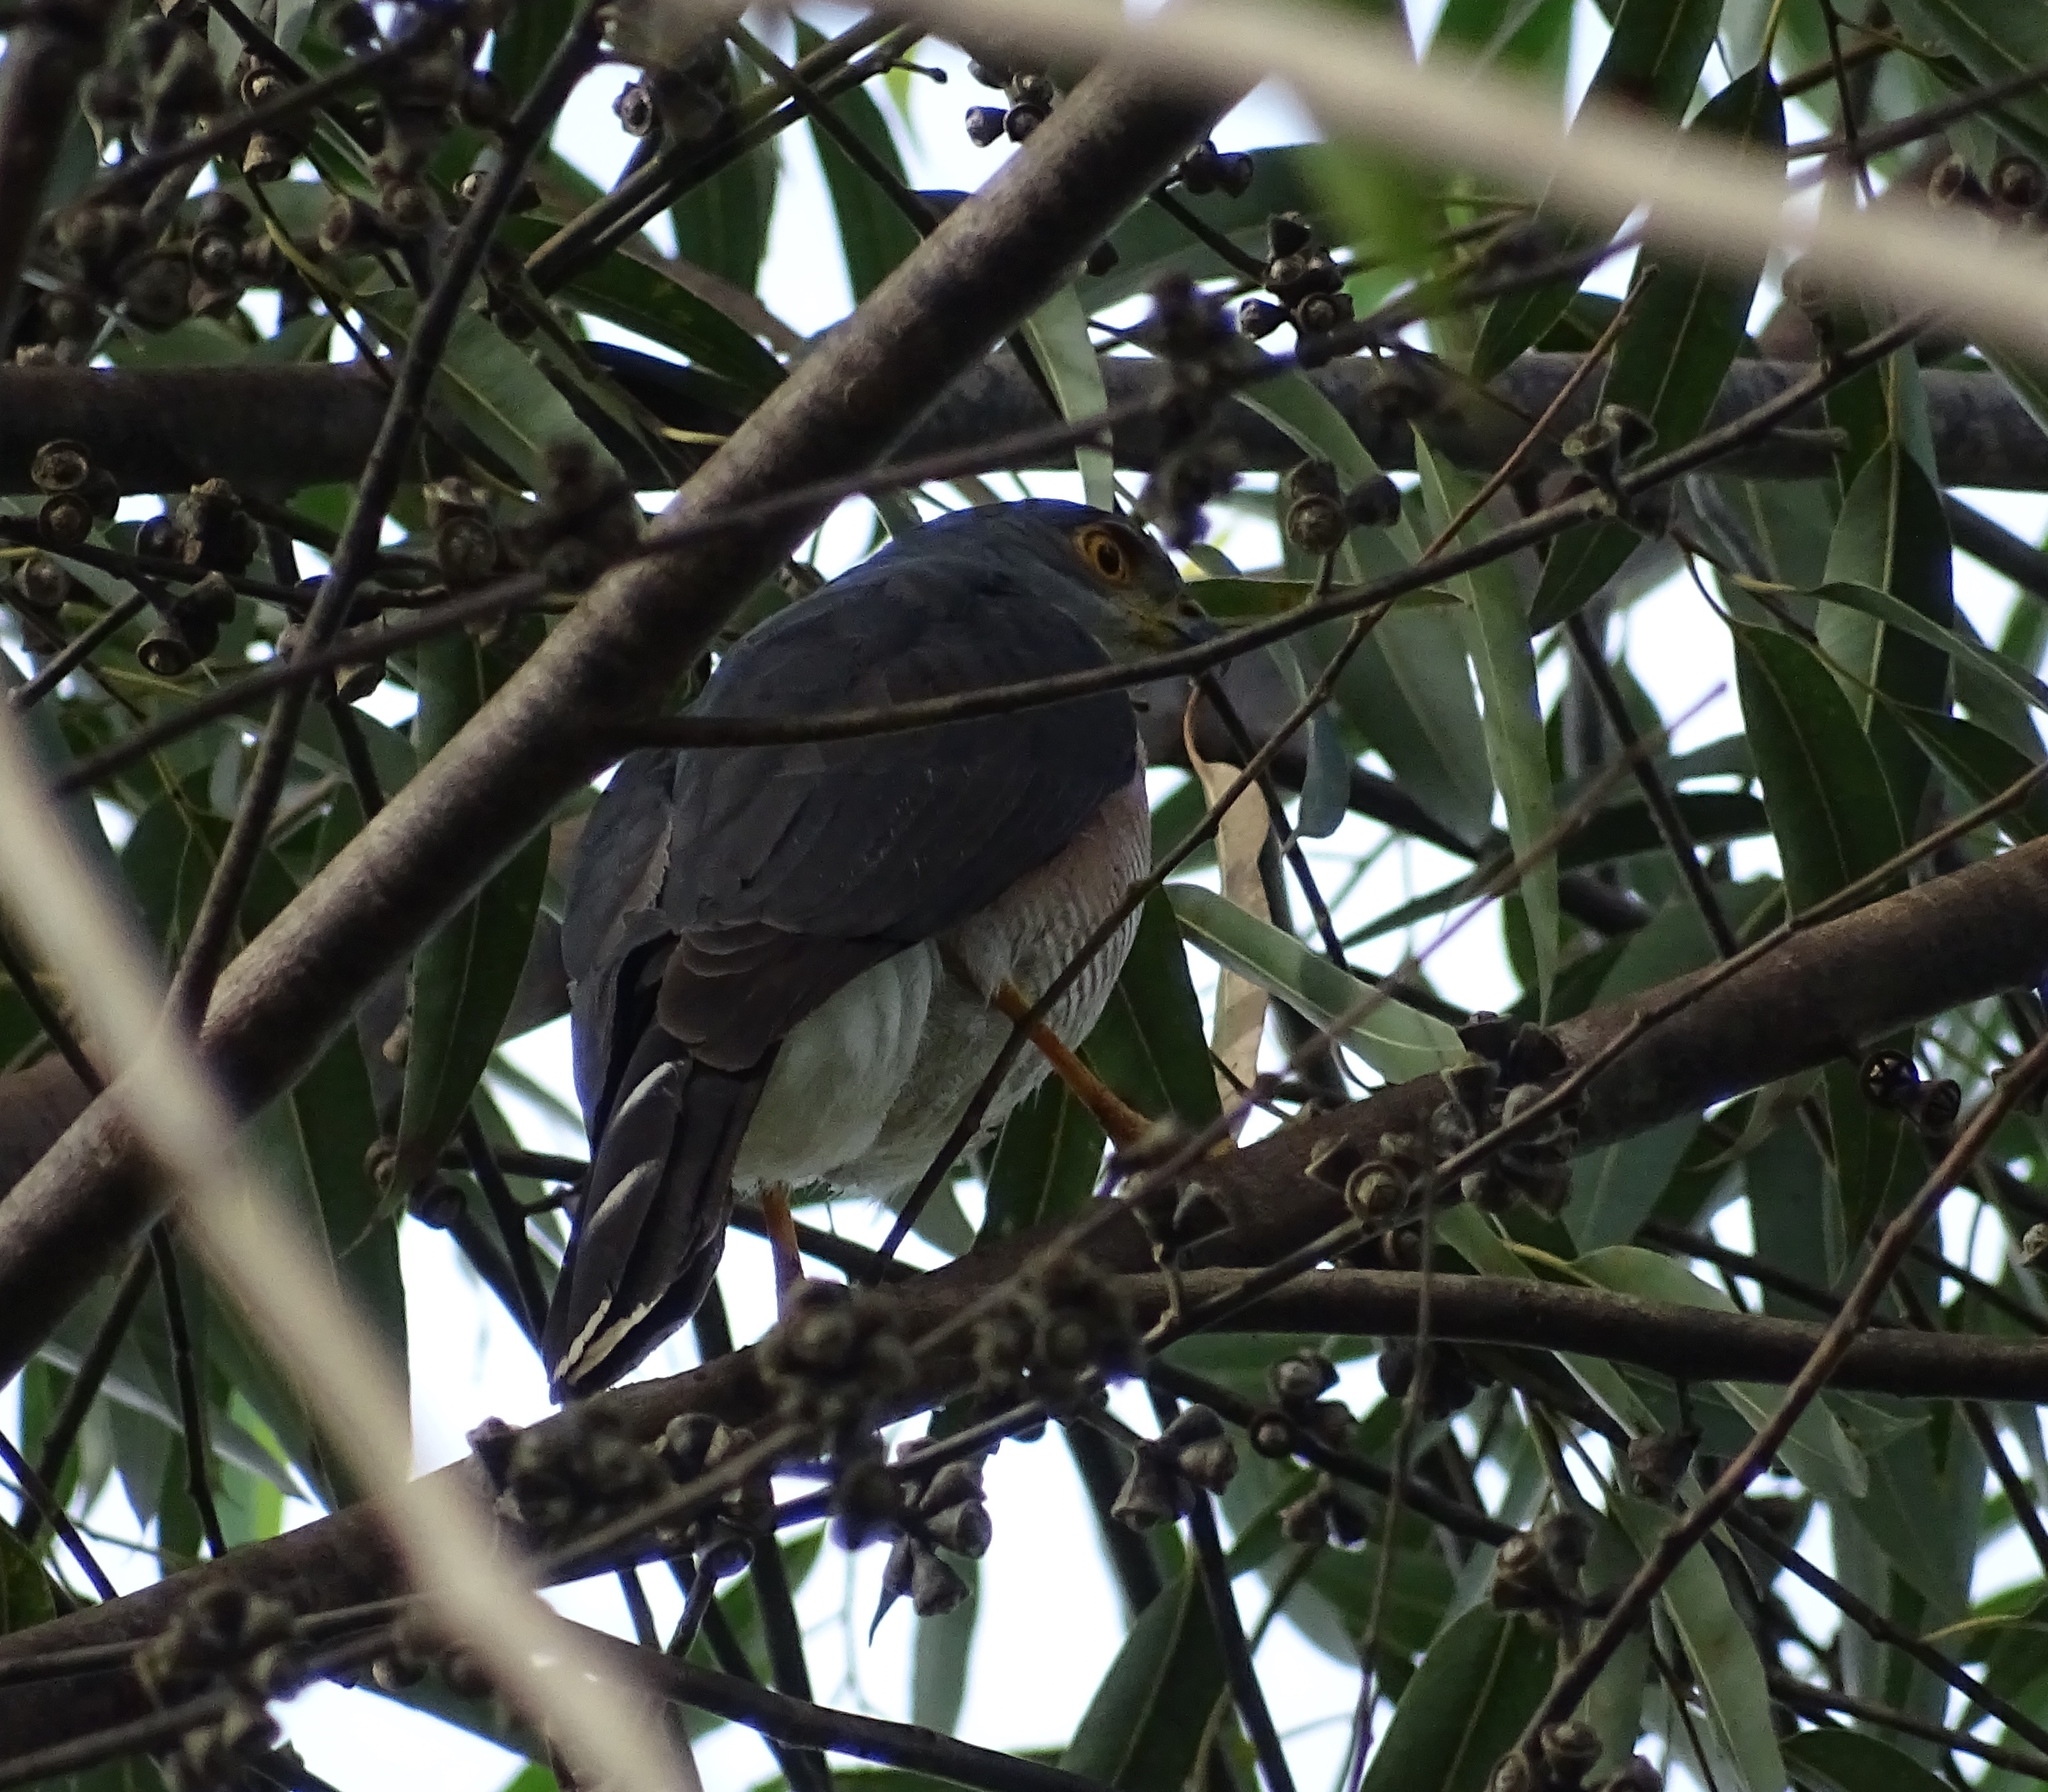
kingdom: Animalia
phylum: Chordata
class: Aves
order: Accipitriformes
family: Accipitridae
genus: Accipiter
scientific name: Accipiter tachiro
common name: African goshawk
